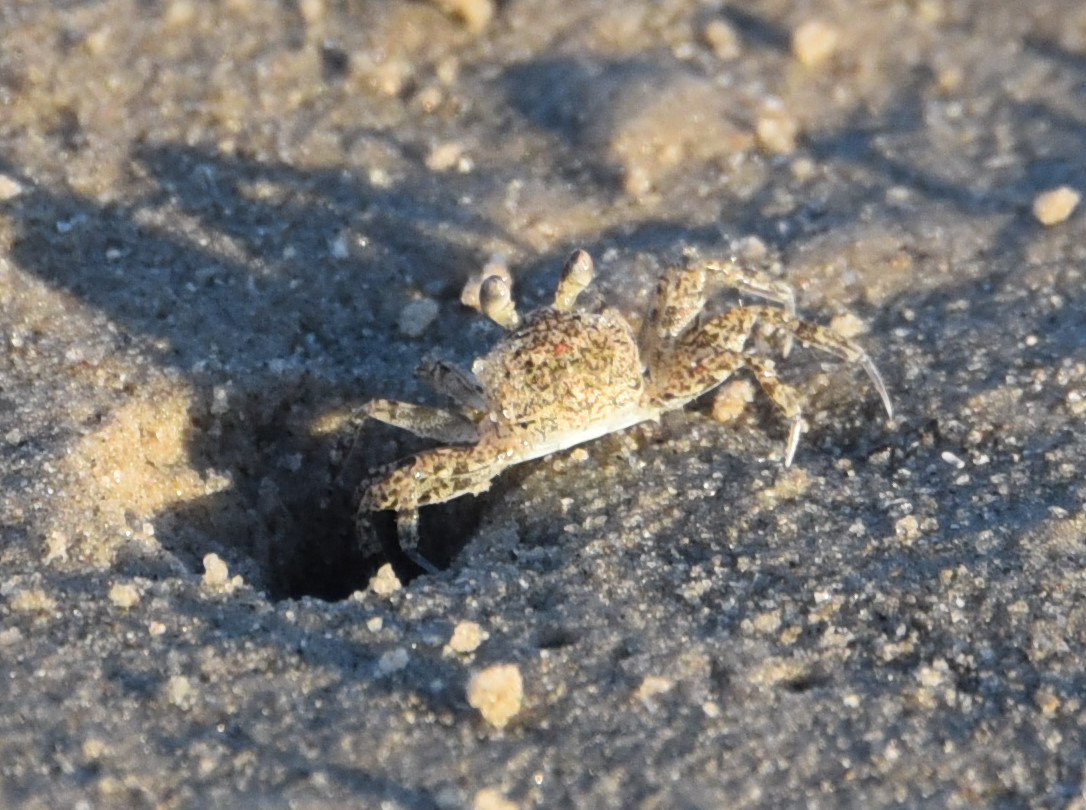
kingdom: Animalia
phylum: Arthropoda
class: Malacostraca
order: Decapoda
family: Ocypodidae
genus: Ocypode
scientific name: Ocypode quadrata
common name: Ghost crab
